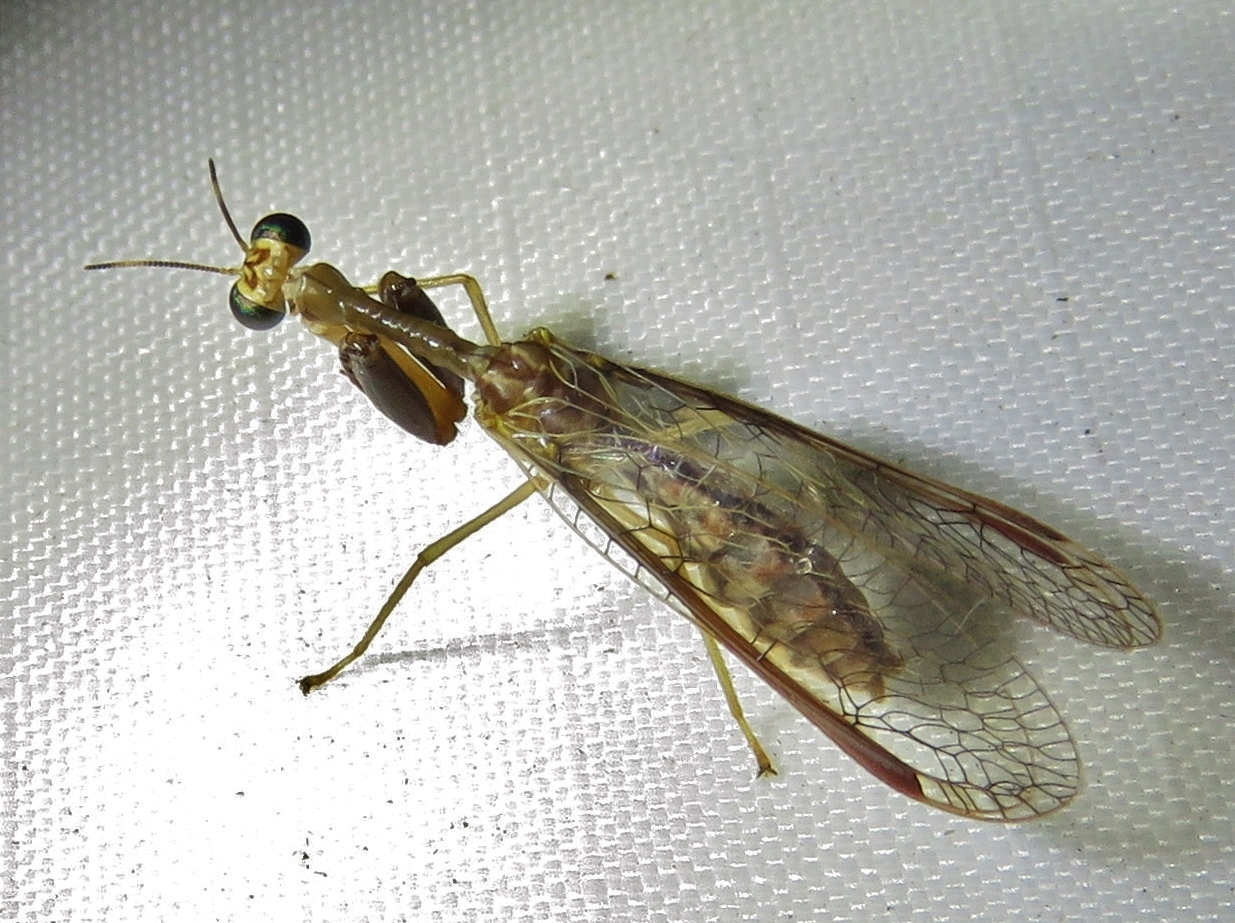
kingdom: Animalia
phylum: Arthropoda
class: Insecta
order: Neuroptera
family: Mantispidae
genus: Dicromantispa
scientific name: Dicromantispa sayi
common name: Say's mantidfly
